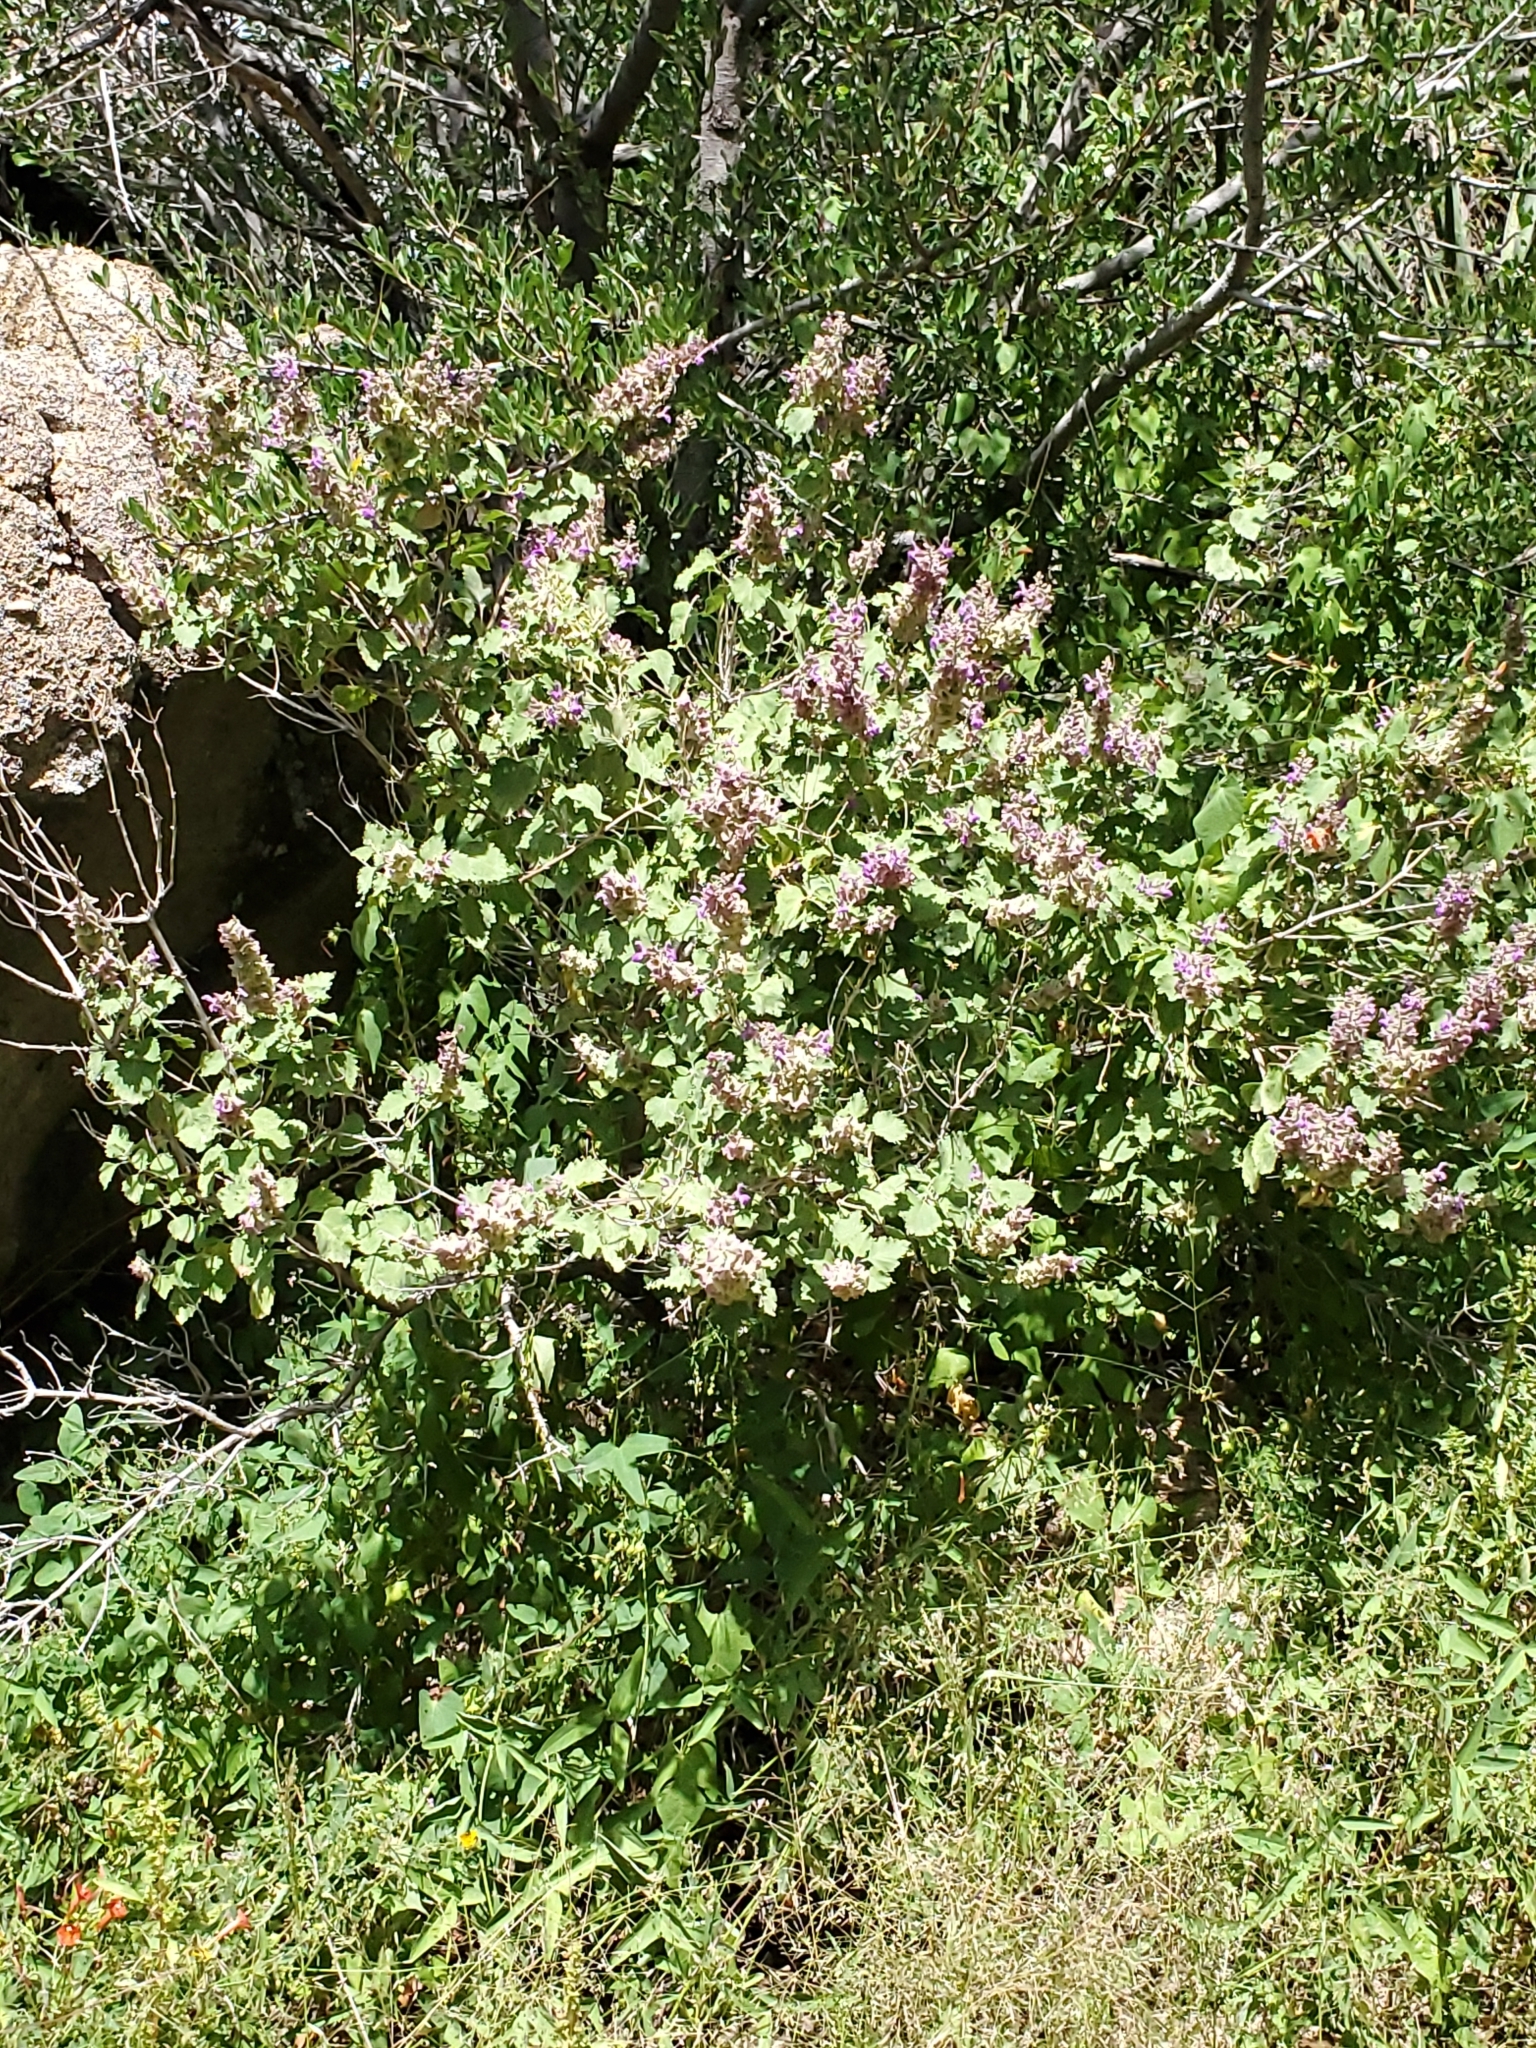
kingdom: Plantae
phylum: Tracheophyta
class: Magnoliopsida
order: Lamiales
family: Lamiaceae
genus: Salvia
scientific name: Salvia pinguifolia
